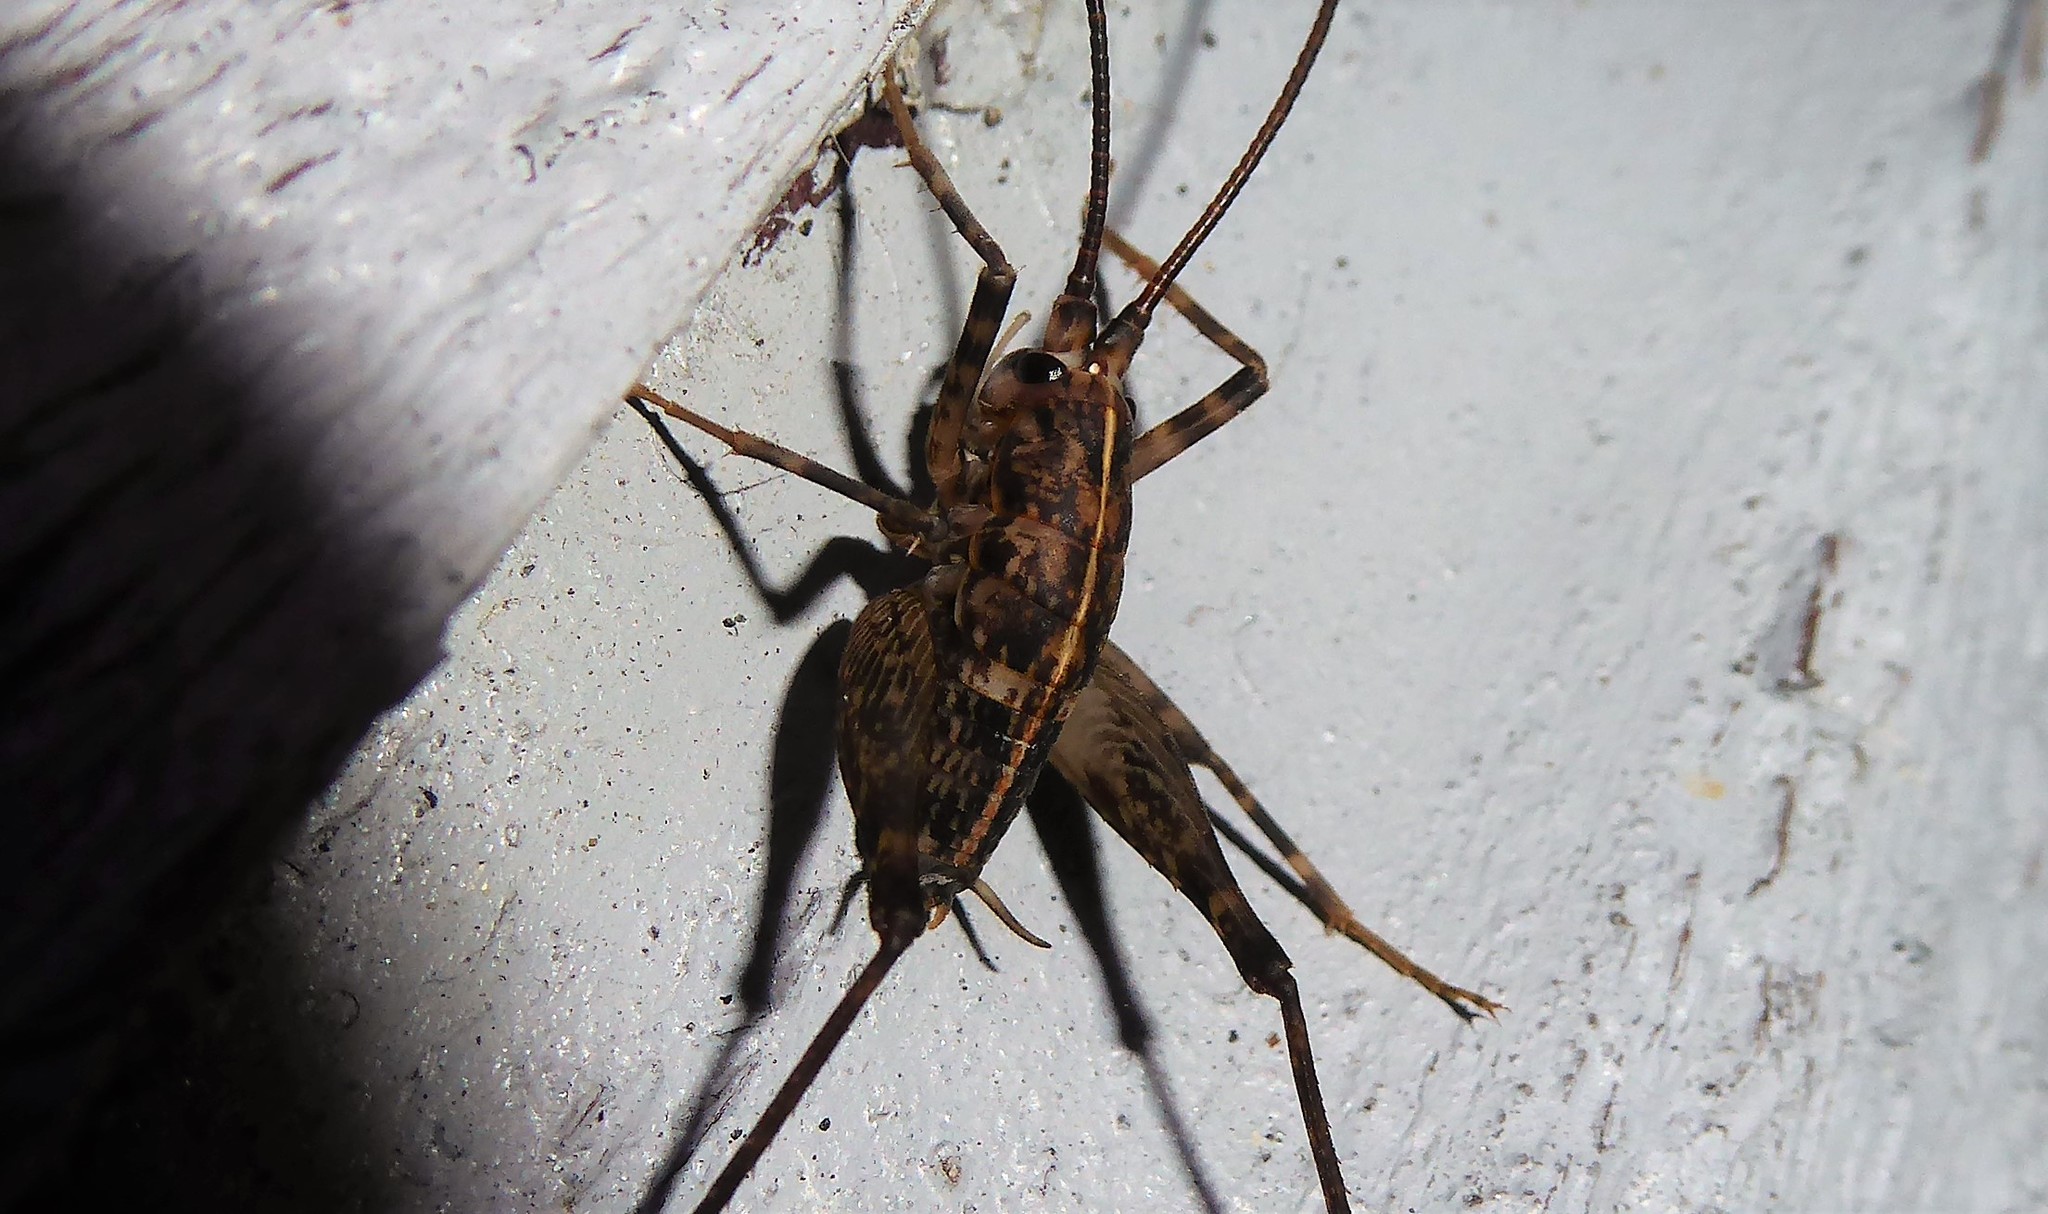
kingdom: Animalia
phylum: Arthropoda
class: Insecta
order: Orthoptera
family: Rhaphidophoridae
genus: Pleioplectron
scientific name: Pleioplectron simplex
